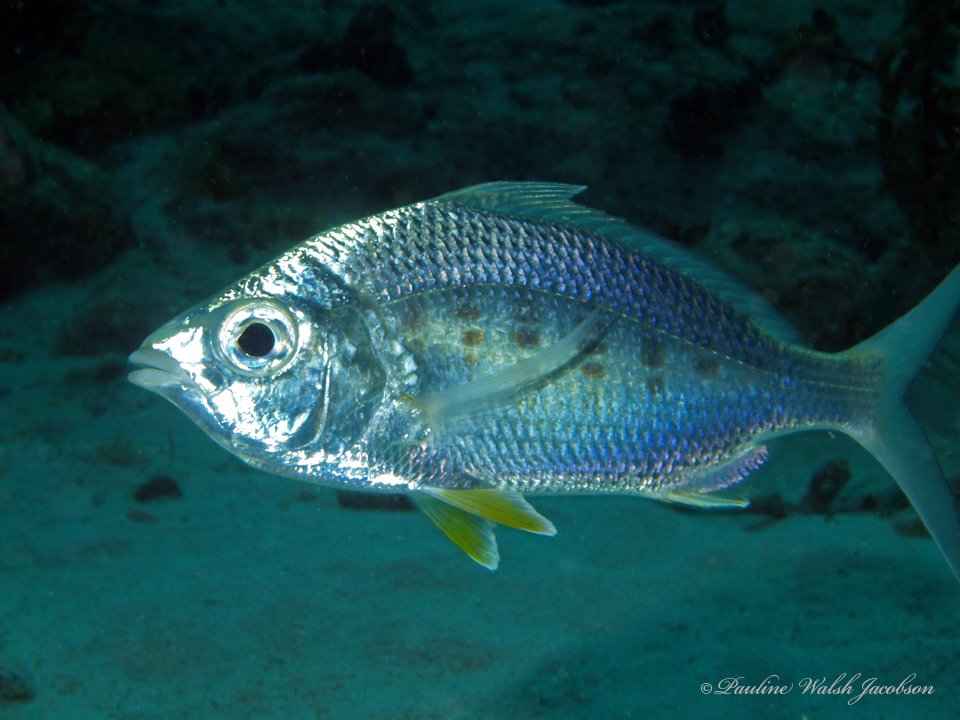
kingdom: Animalia
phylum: Chordata
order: Perciformes
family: Gerreidae
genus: Gerres
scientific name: Gerres cinereus
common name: Hedow
